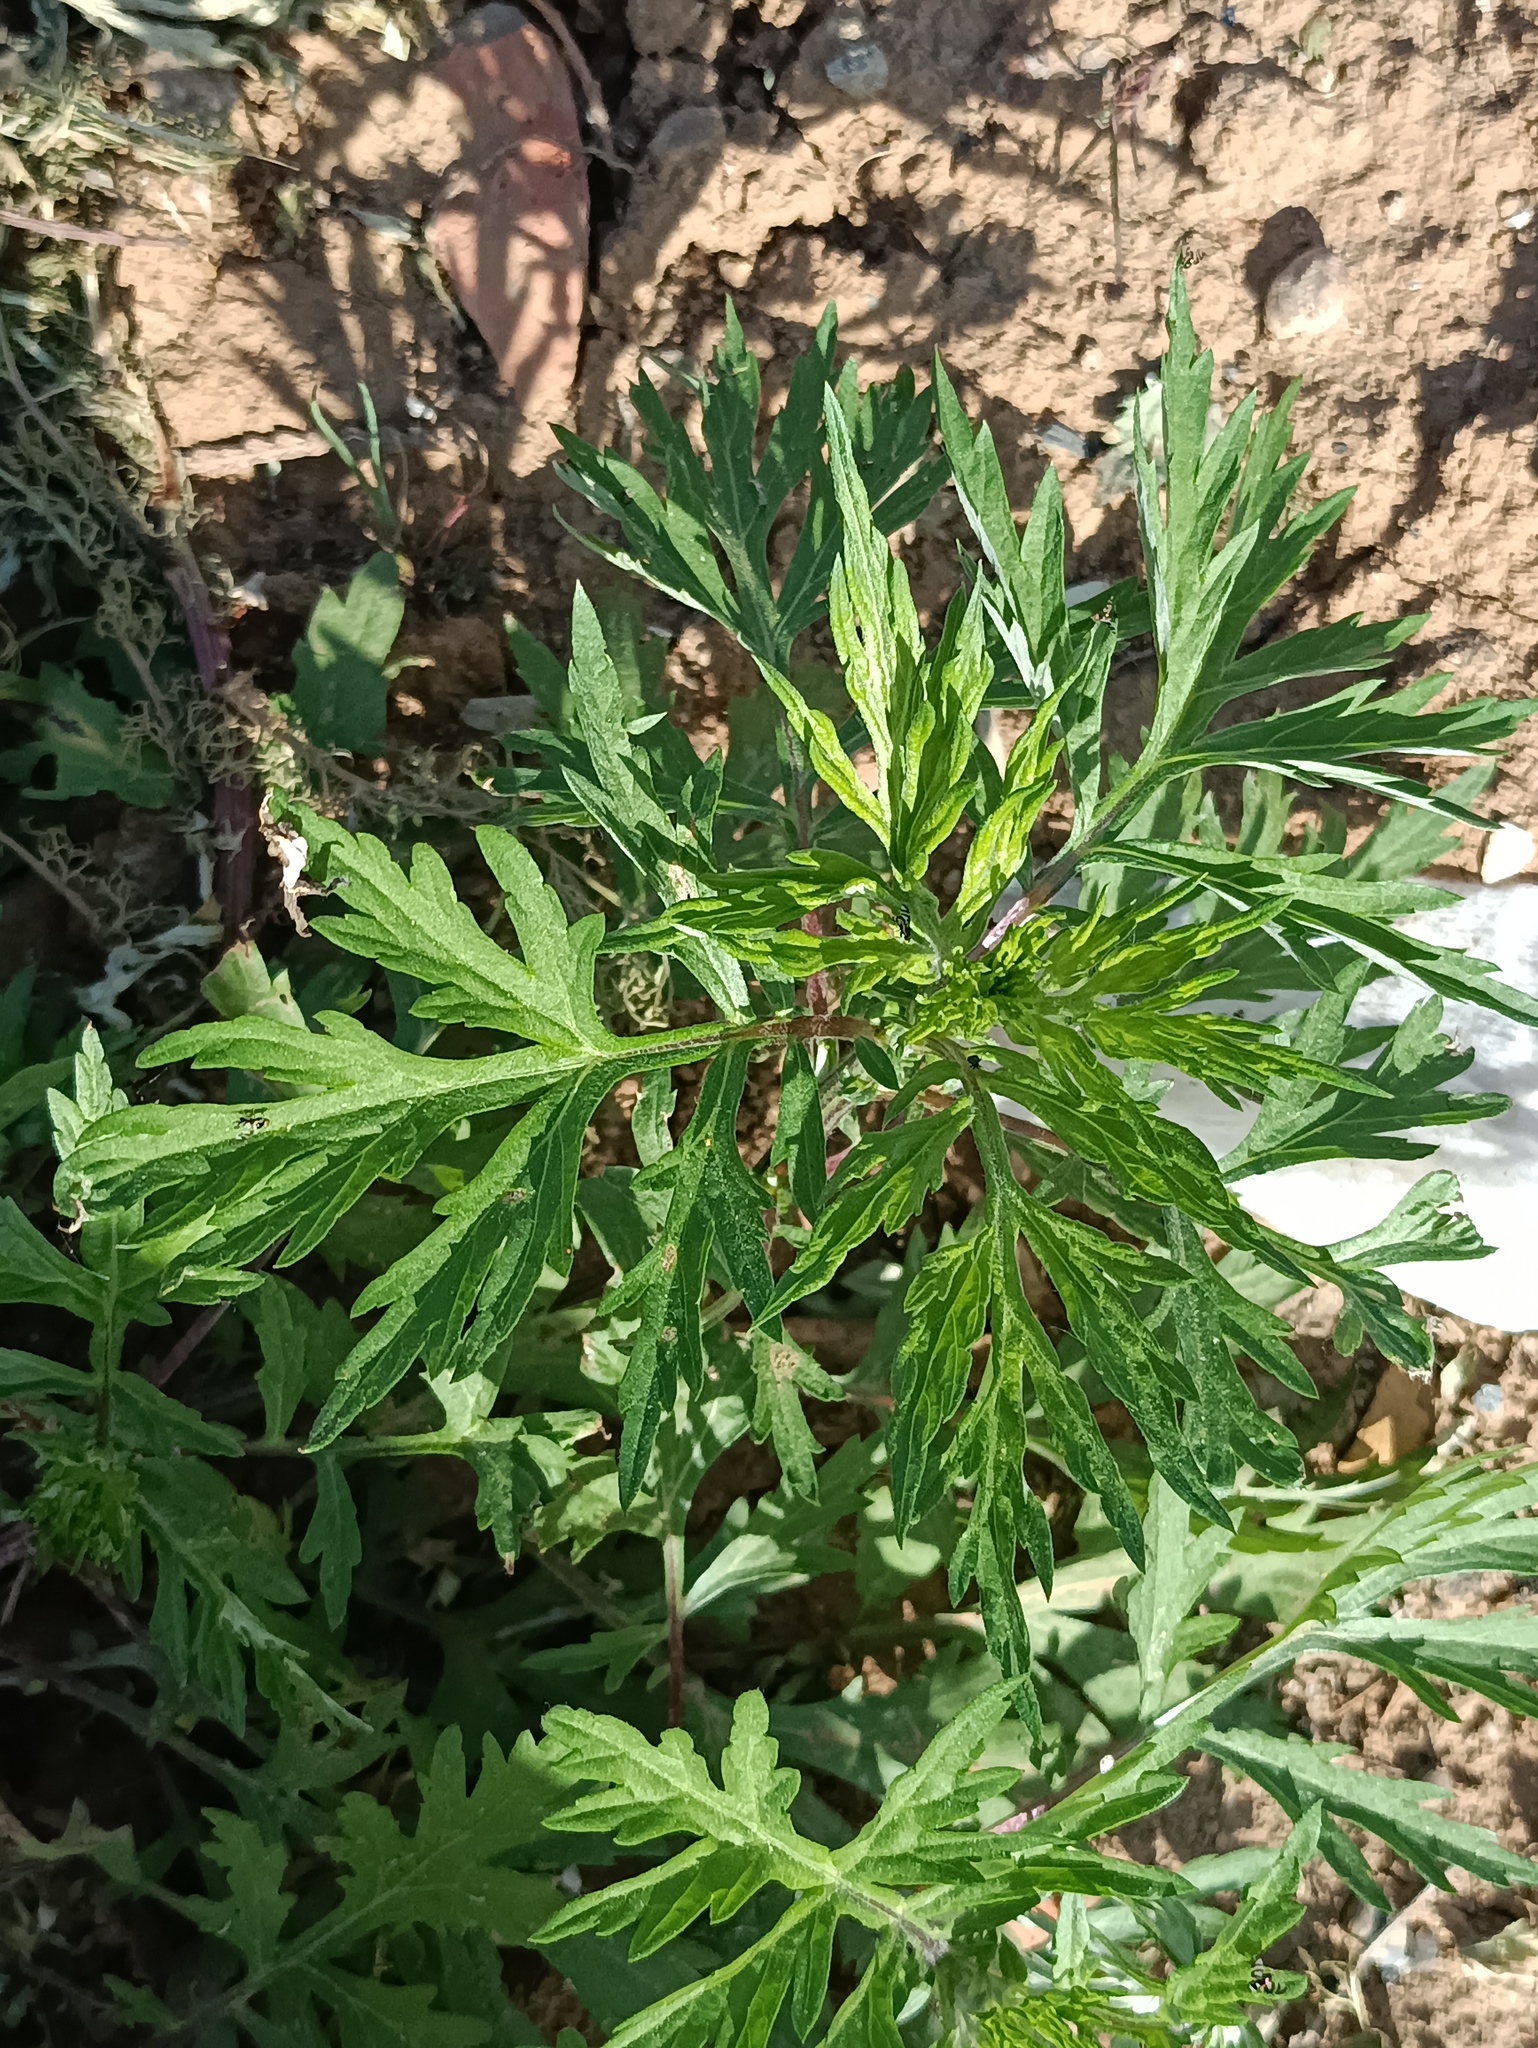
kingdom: Plantae
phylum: Tracheophyta
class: Magnoliopsida
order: Asterales
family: Asteraceae
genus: Artemisia
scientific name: Artemisia vulgaris
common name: Mugwort
